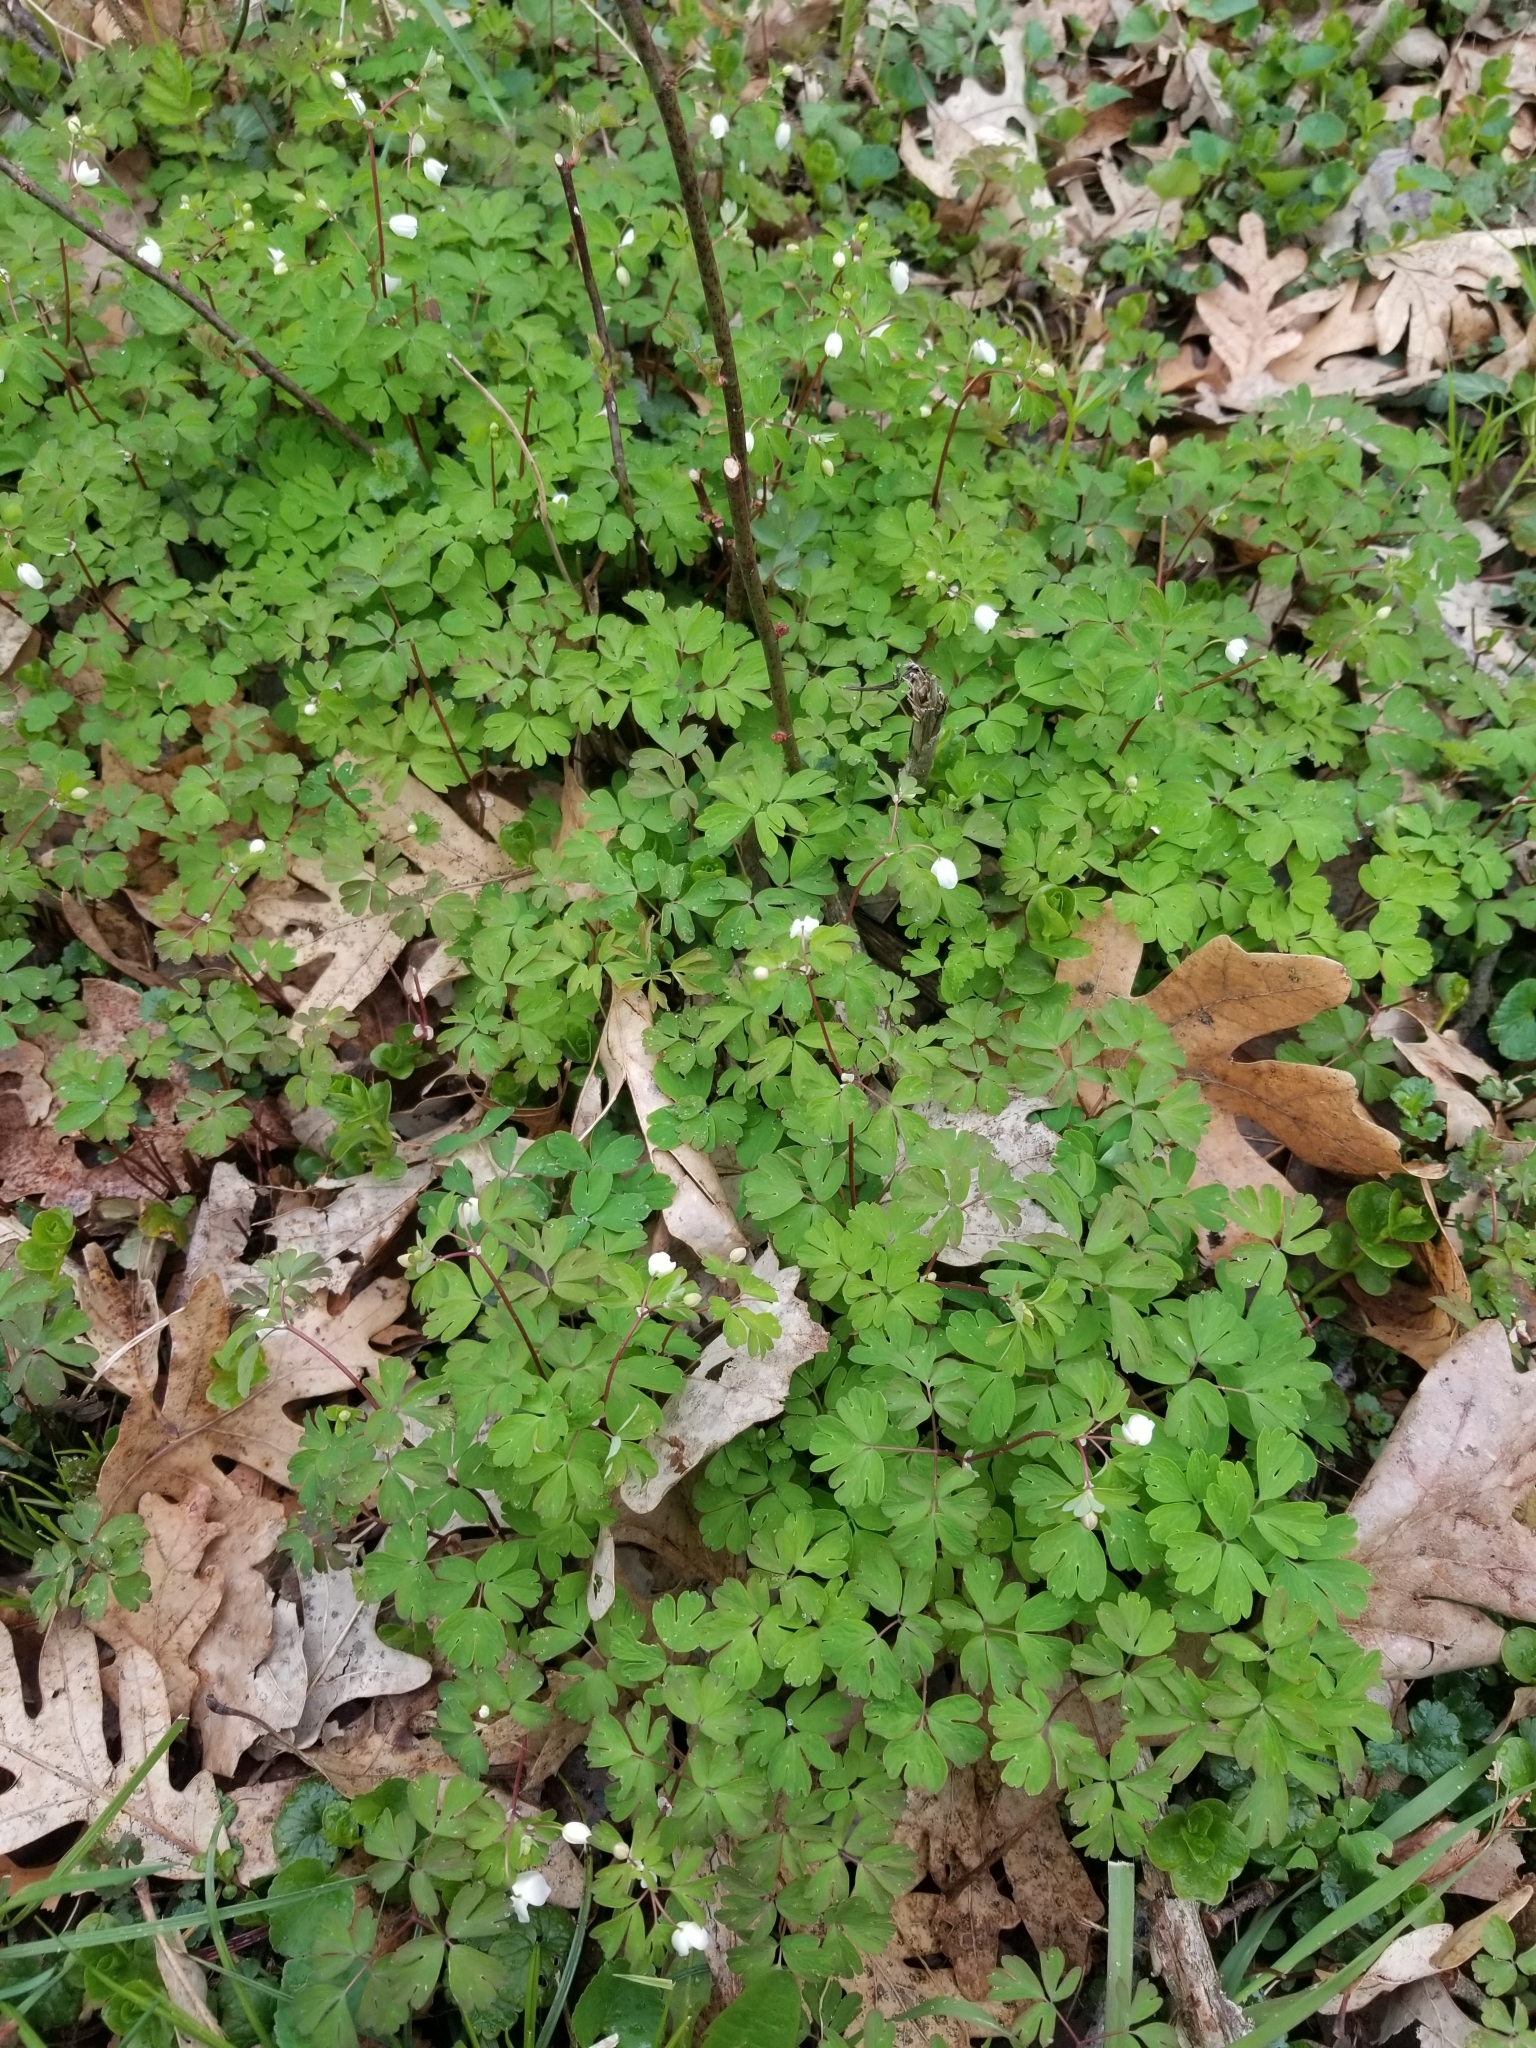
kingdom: Plantae
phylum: Tracheophyta
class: Magnoliopsida
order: Ranunculales
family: Ranunculaceae
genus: Enemion
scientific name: Enemion biternatum
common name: Eastern false rue-anemone
